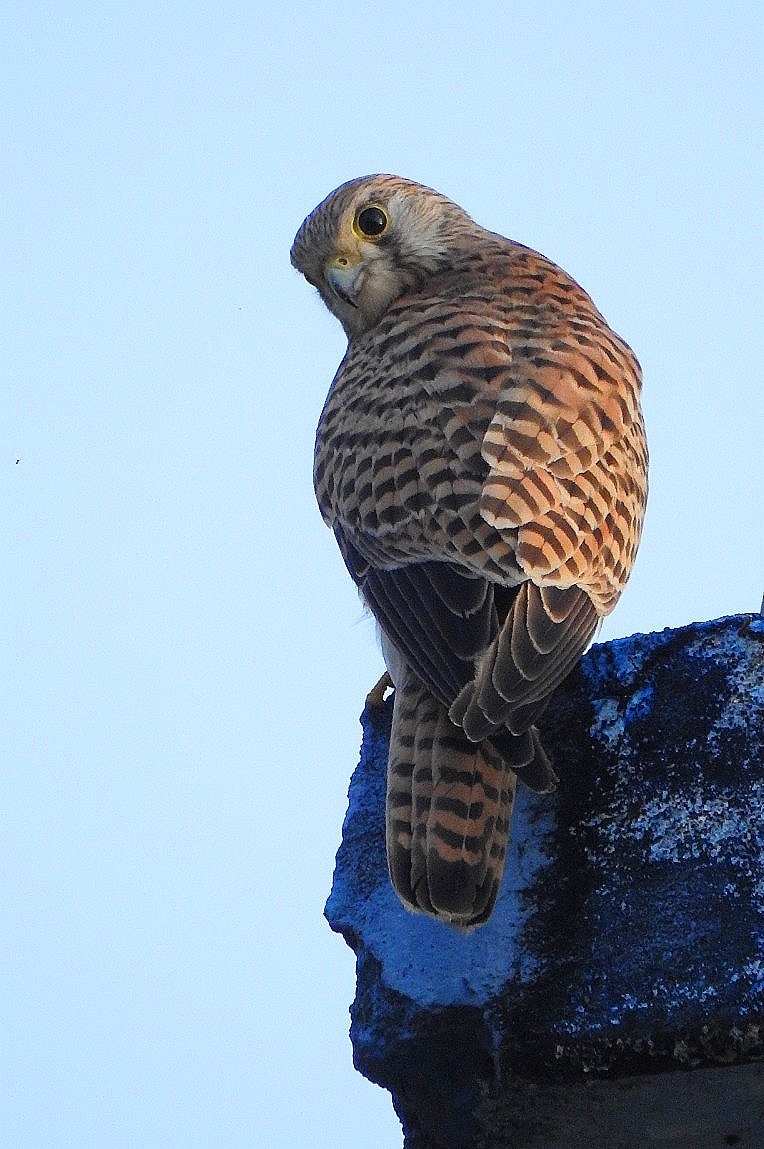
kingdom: Animalia
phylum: Chordata
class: Aves
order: Falconiformes
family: Falconidae
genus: Falco
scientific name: Falco tinnunculus
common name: Common kestrel
